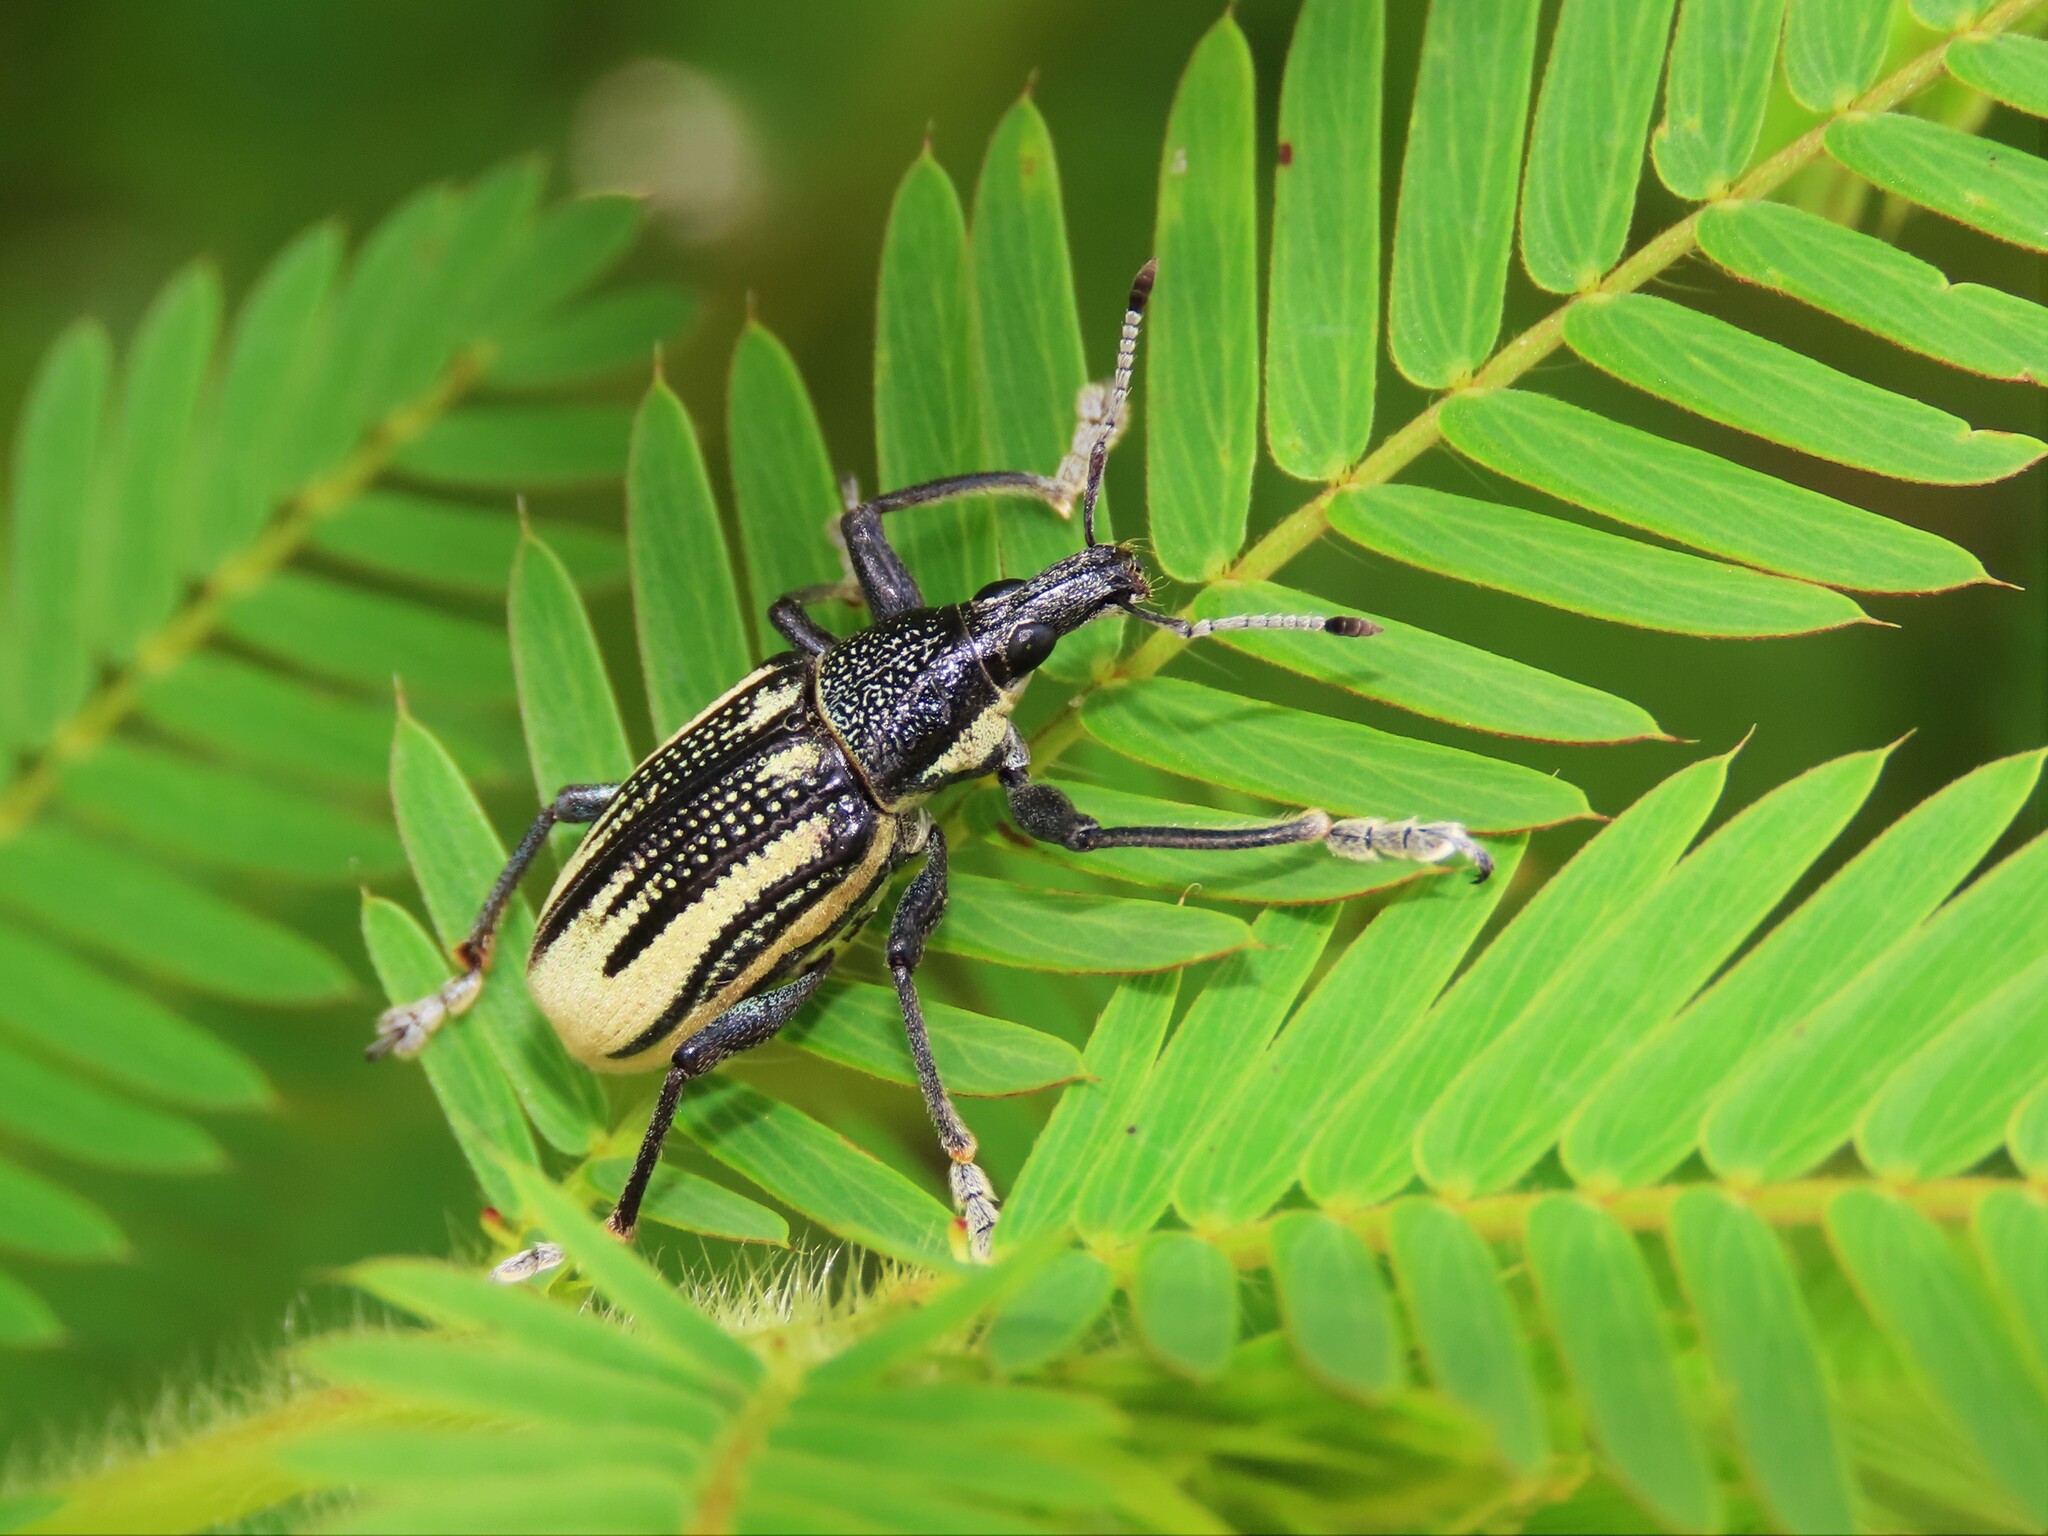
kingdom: Animalia
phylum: Arthropoda
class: Insecta
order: Coleoptera
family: Curculionidae
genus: Diaprepes
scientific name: Diaprepes abbreviatus
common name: Root weevil
